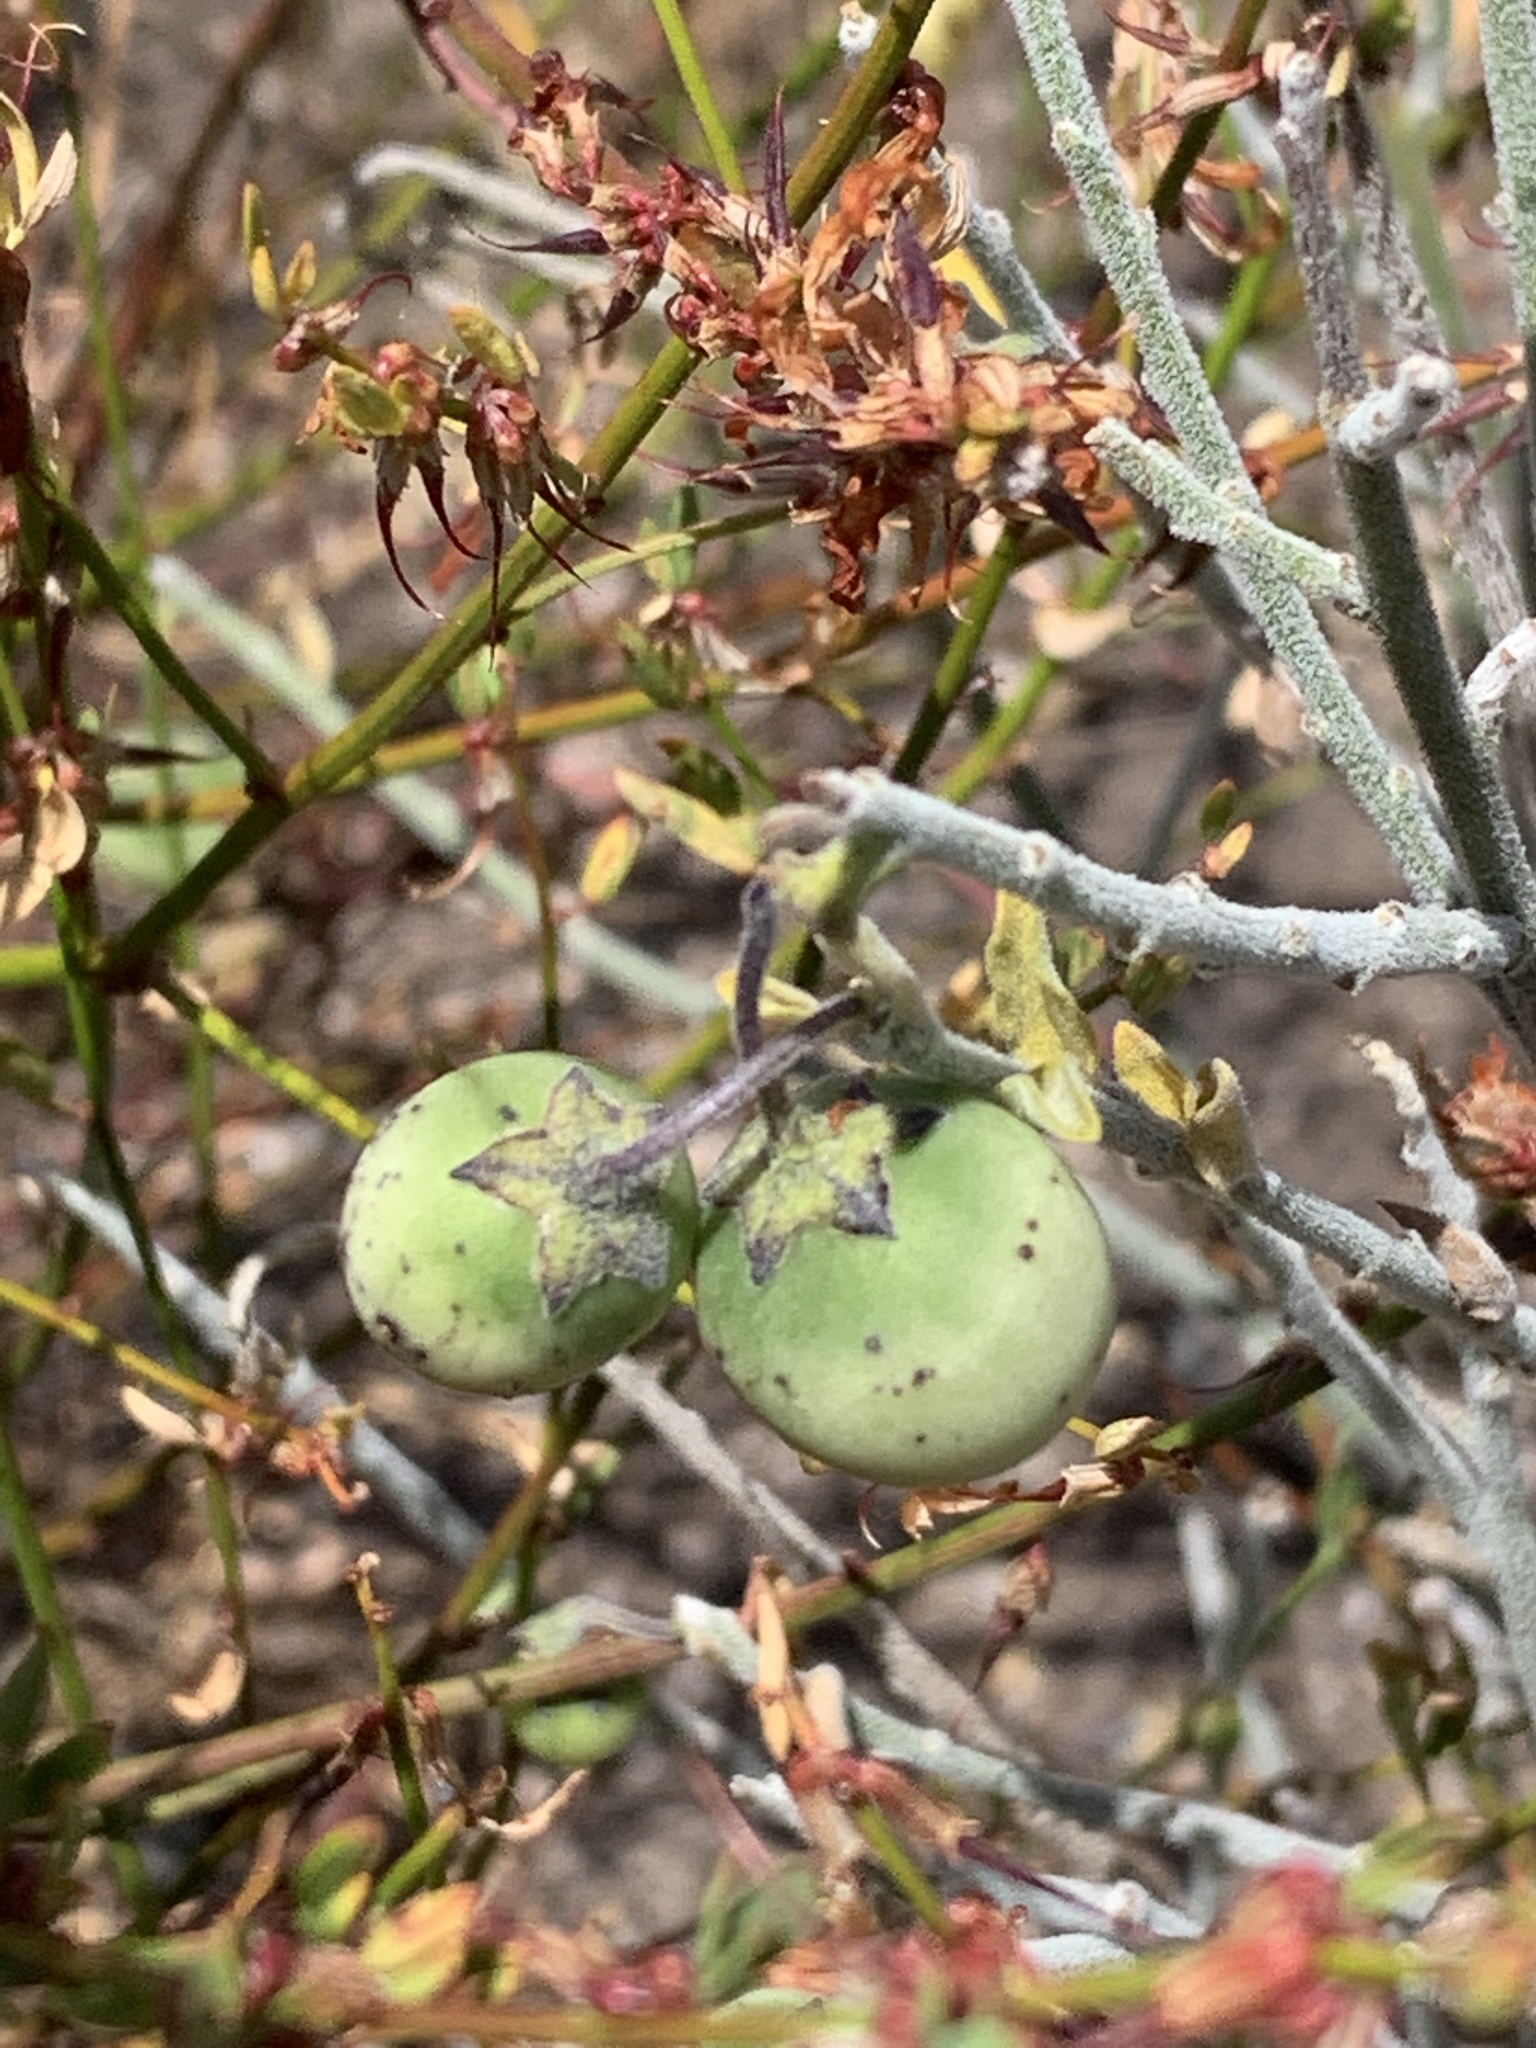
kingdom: Plantae
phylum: Tracheophyta
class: Magnoliopsida
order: Solanales
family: Solanaceae
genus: Solanum
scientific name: Solanum umbelliferum
